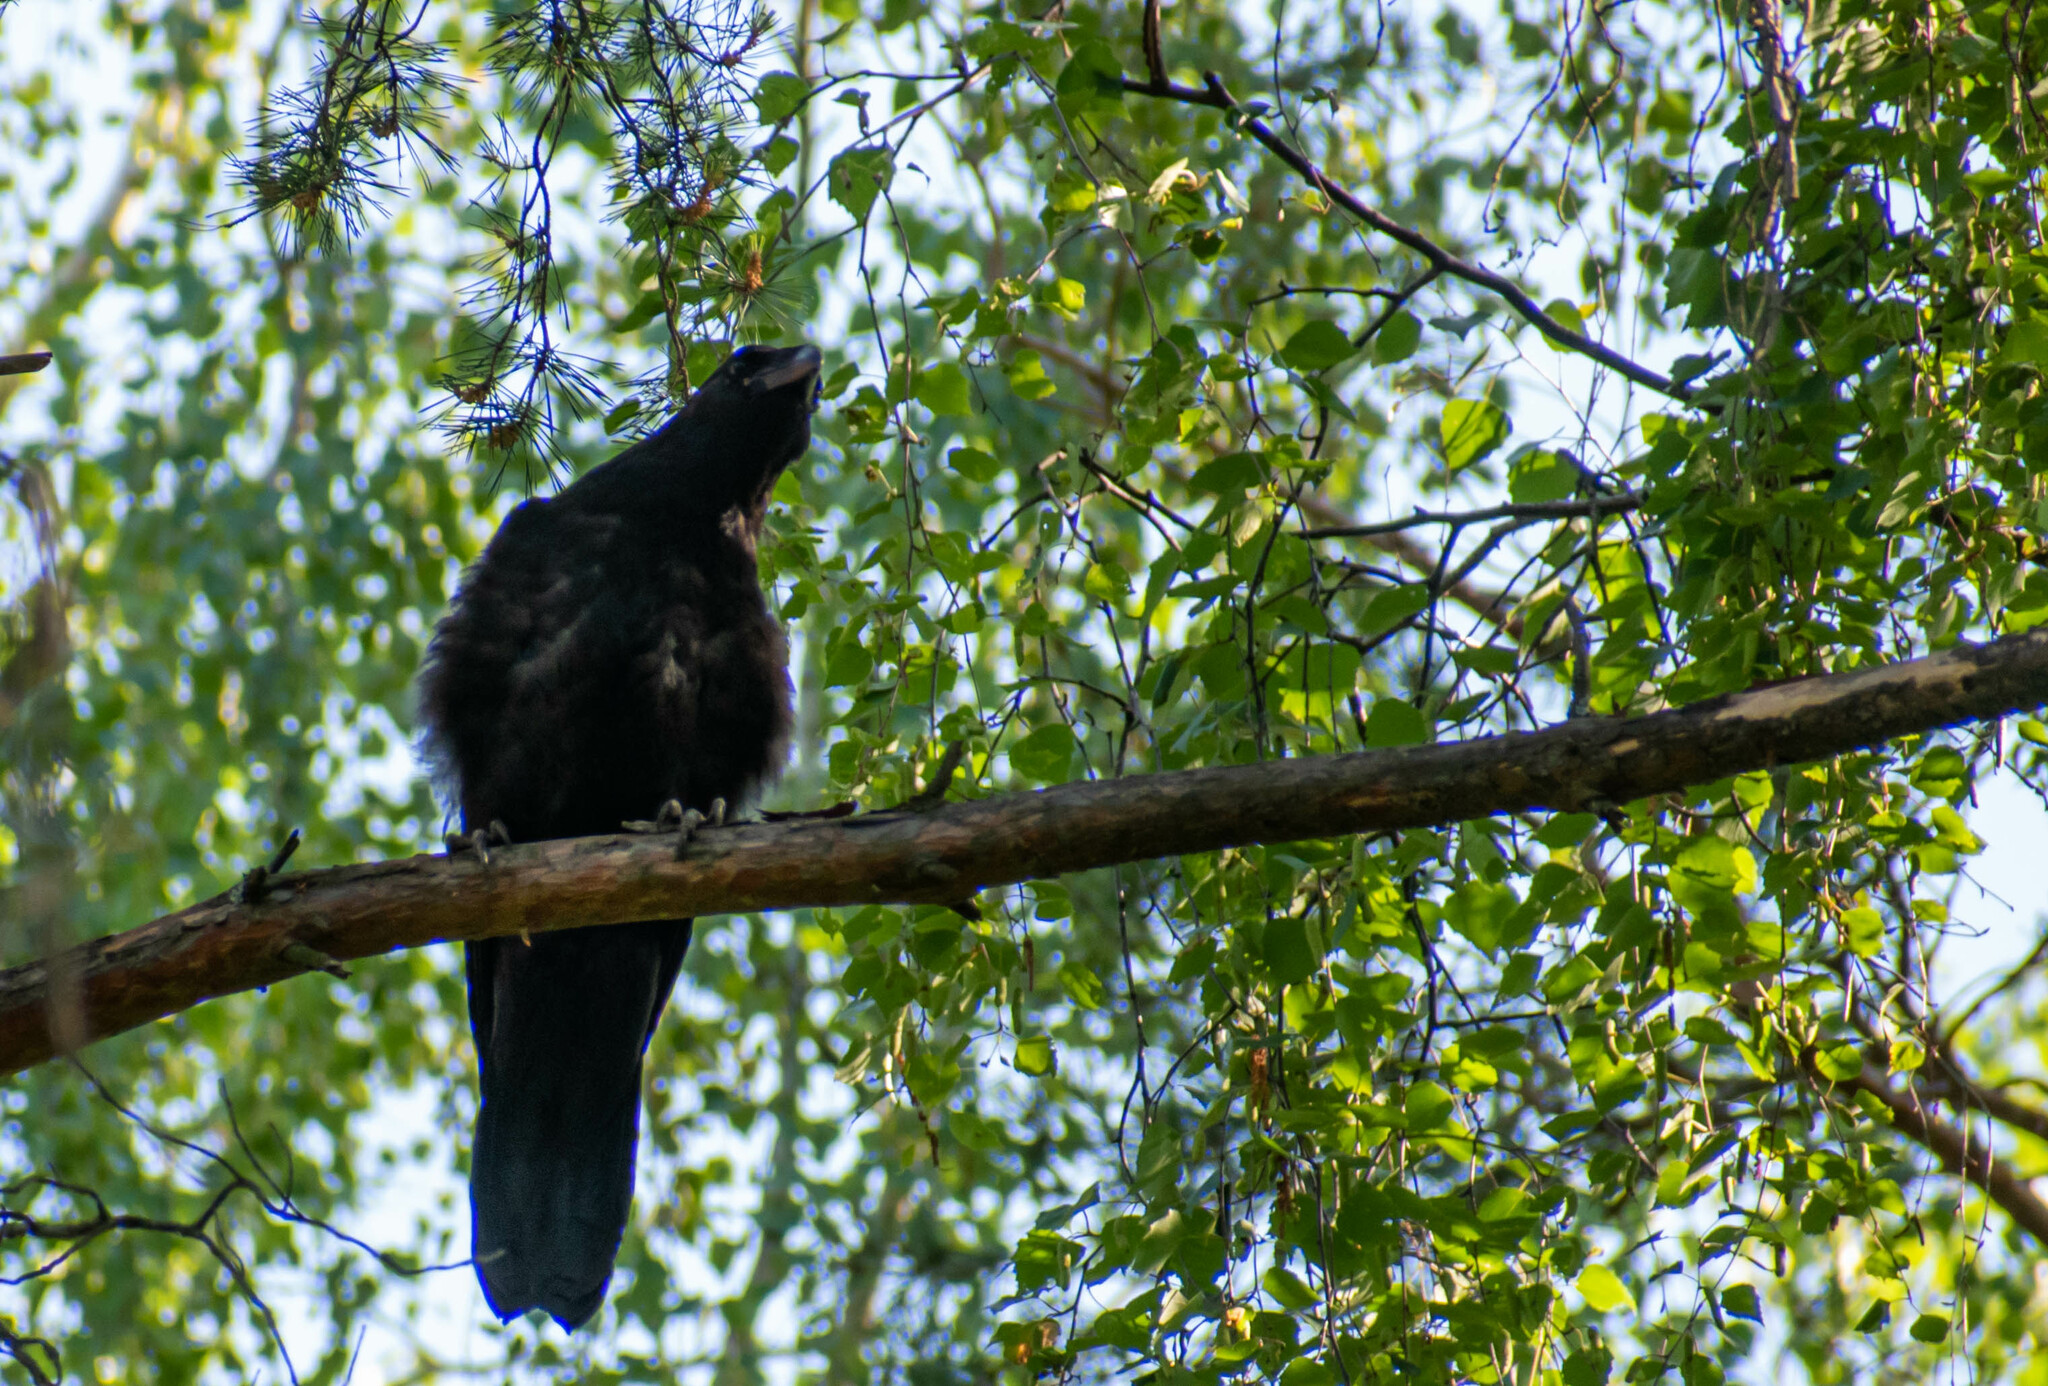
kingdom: Animalia
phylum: Chordata
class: Aves
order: Passeriformes
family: Corvidae
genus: Corvus
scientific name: Corvus corax
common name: Common raven
